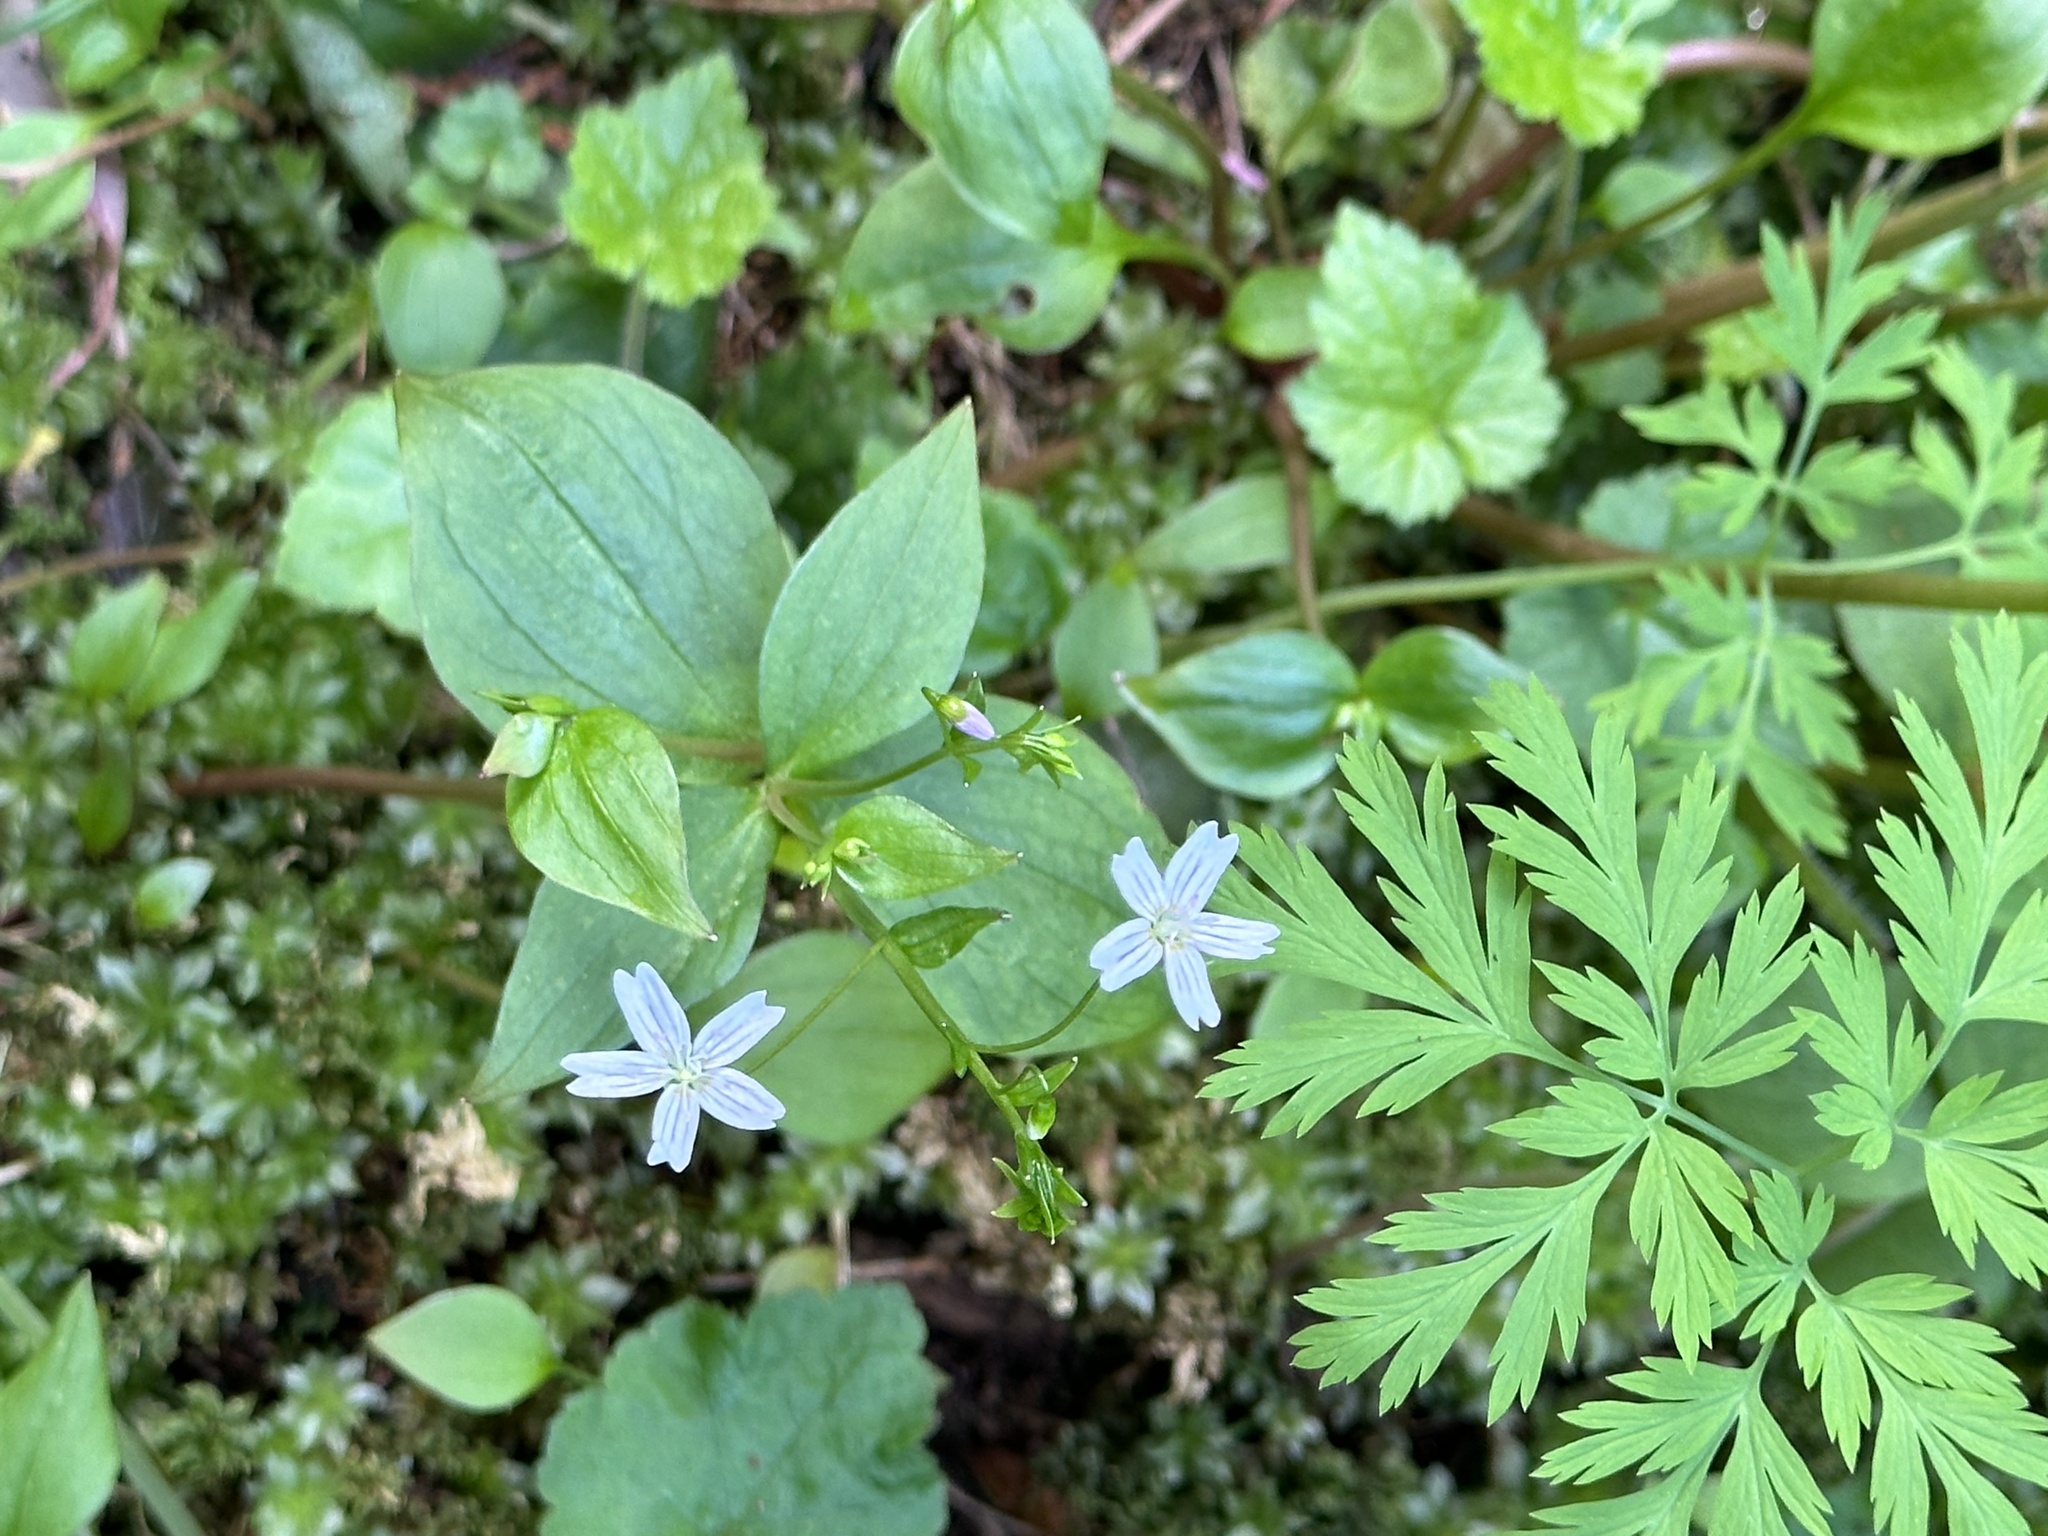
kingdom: Plantae
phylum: Tracheophyta
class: Magnoliopsida
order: Caryophyllales
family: Montiaceae
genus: Claytonia
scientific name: Claytonia sibirica
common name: Pink purslane
